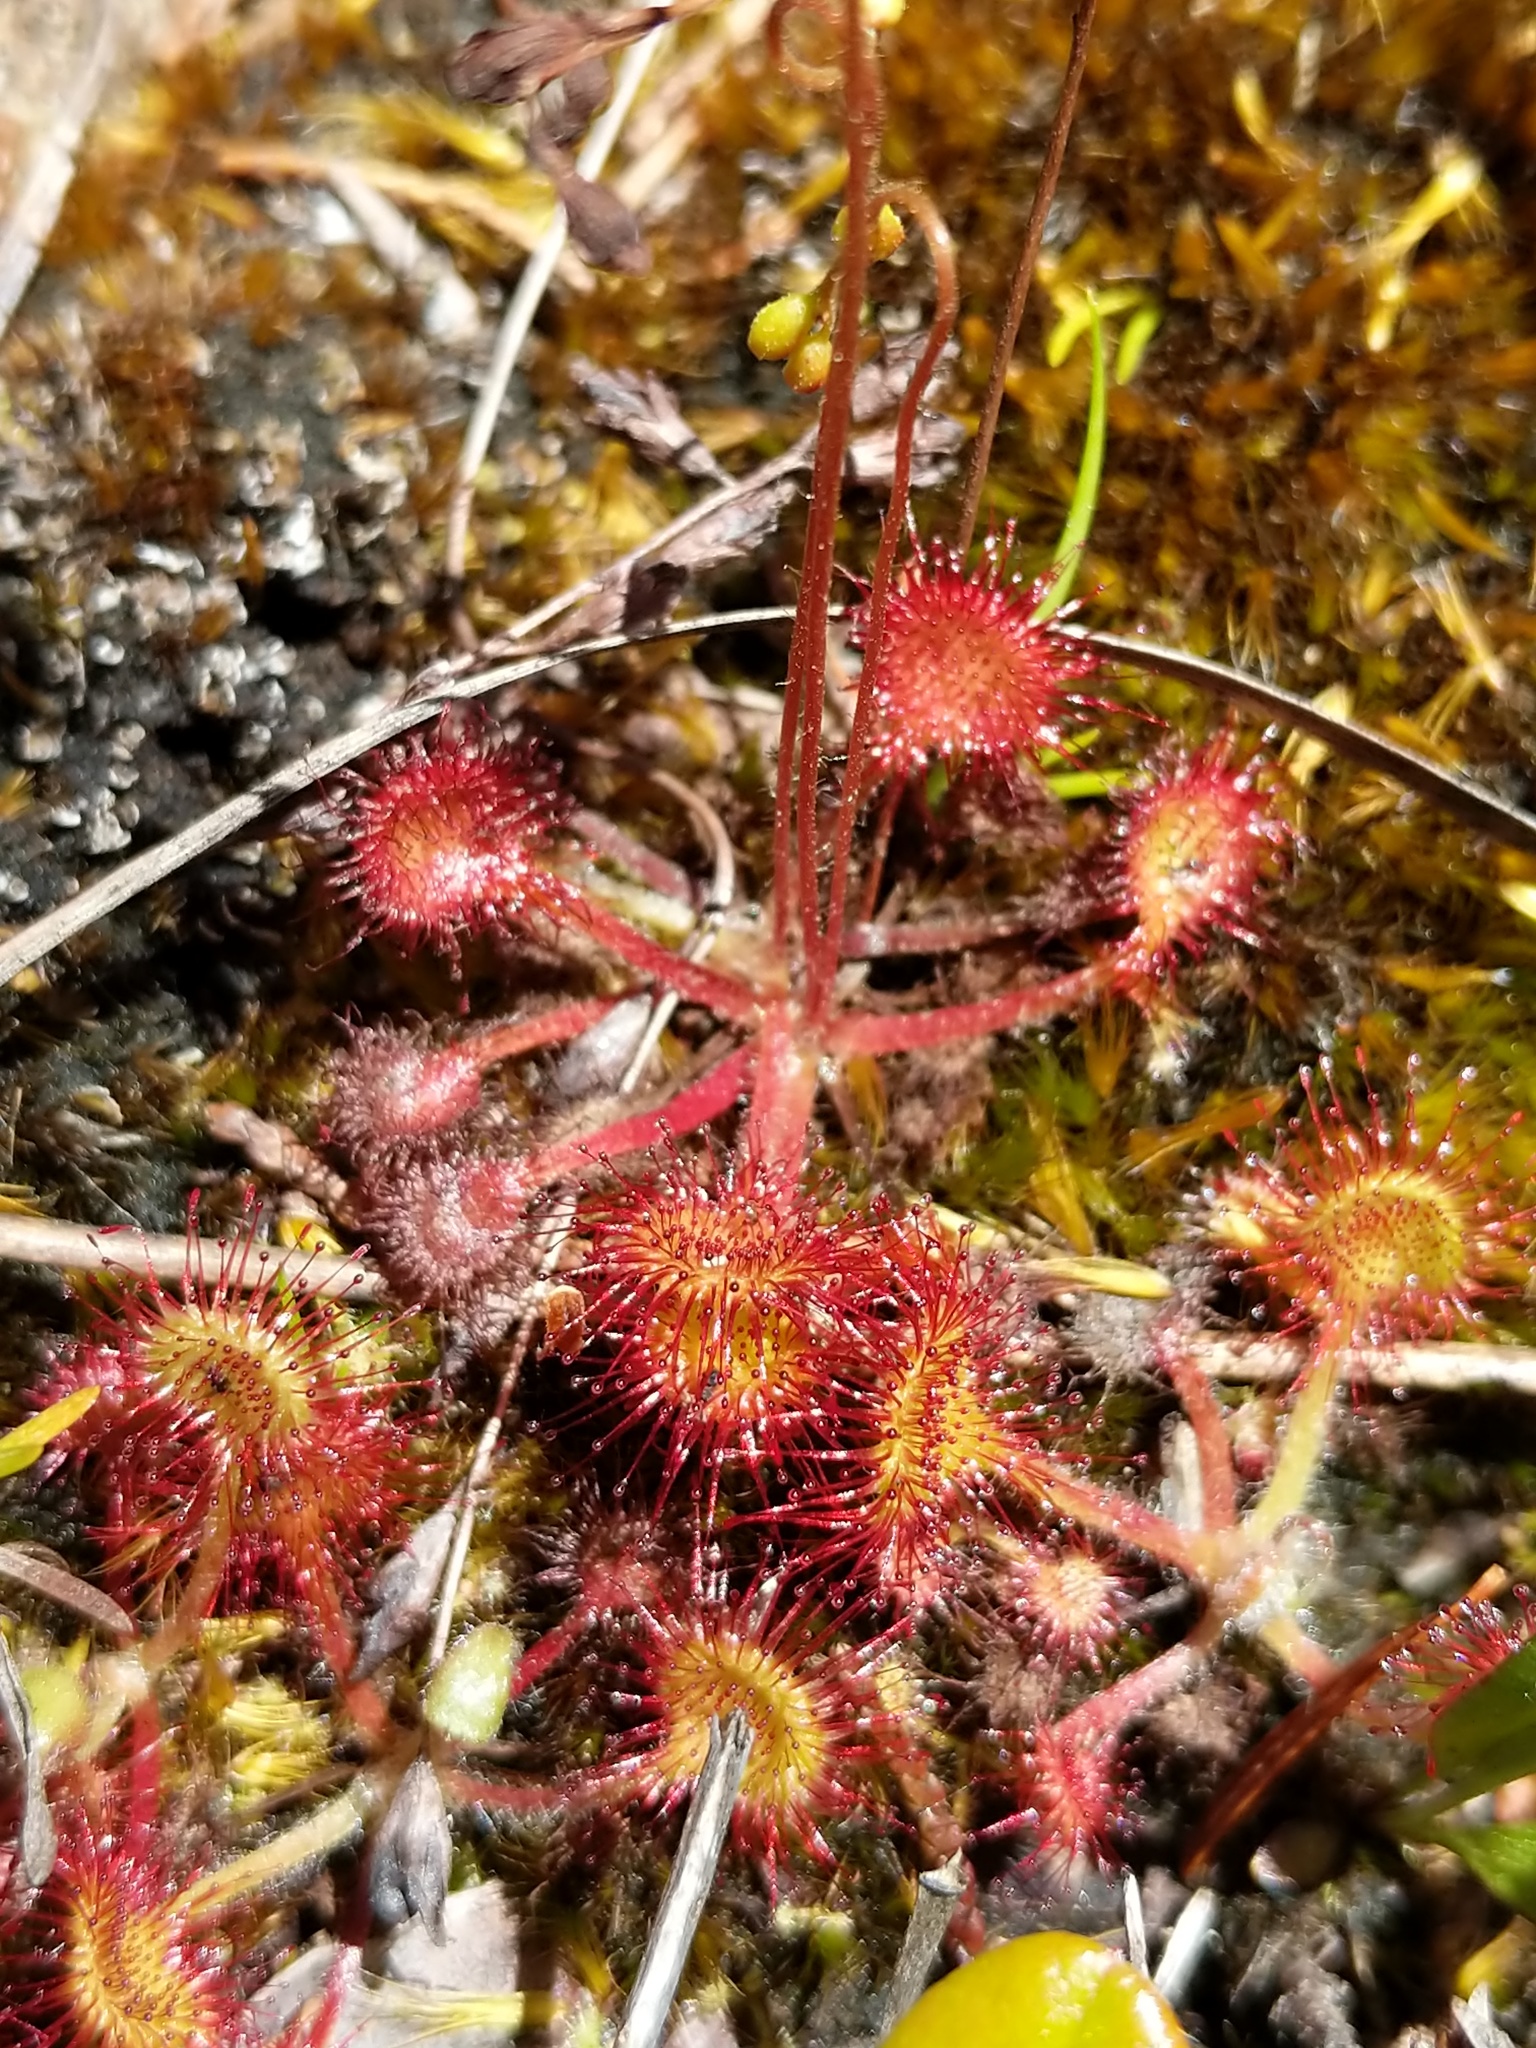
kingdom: Plantae
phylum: Tracheophyta
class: Magnoliopsida
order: Caryophyllales
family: Droseraceae
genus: Drosera
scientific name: Drosera rotundifolia
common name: Round-leaved sundew
